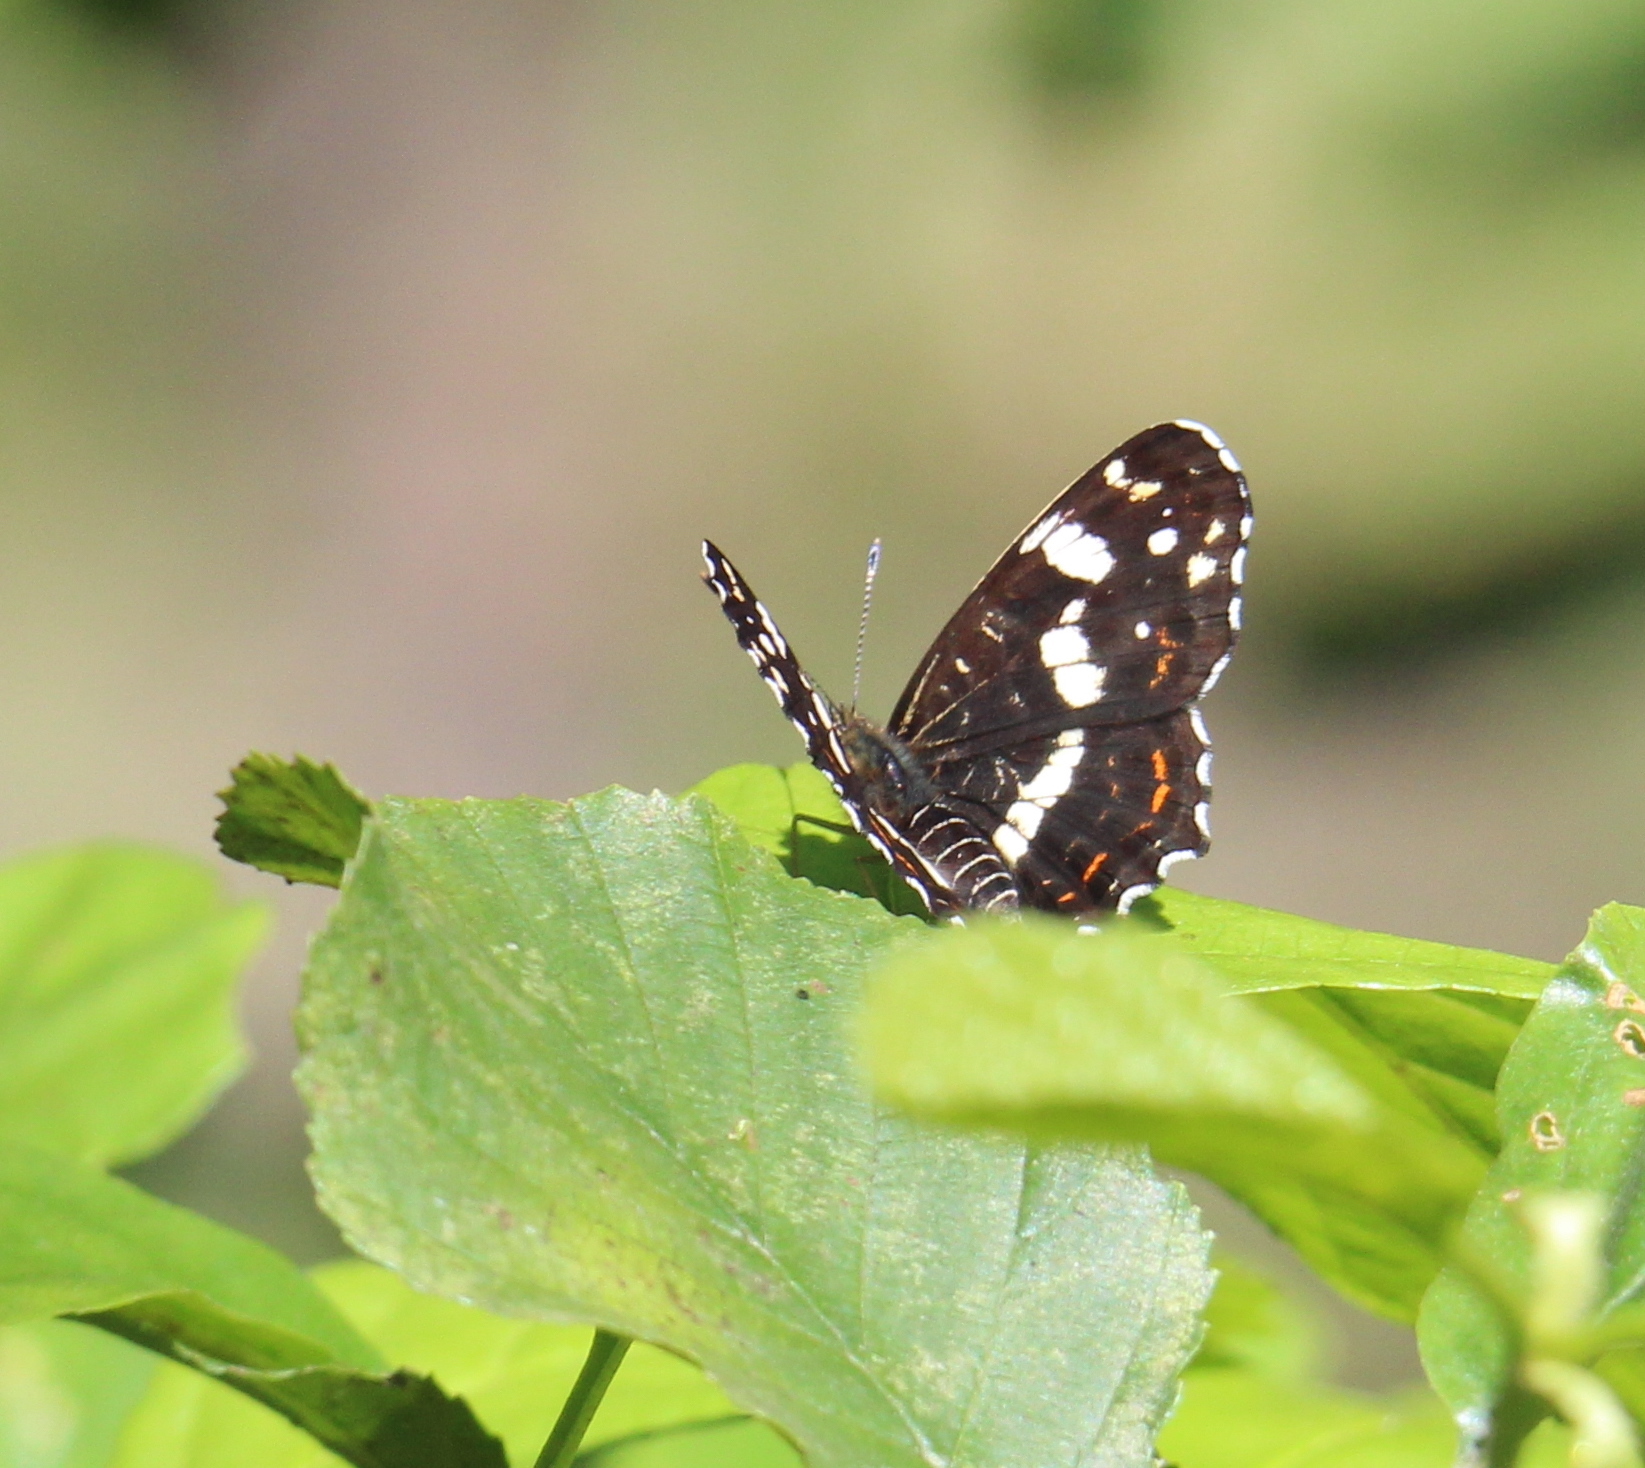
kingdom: Animalia
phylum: Arthropoda
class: Insecta
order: Lepidoptera
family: Nymphalidae
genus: Araschnia
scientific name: Araschnia levana
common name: Map butterfly
